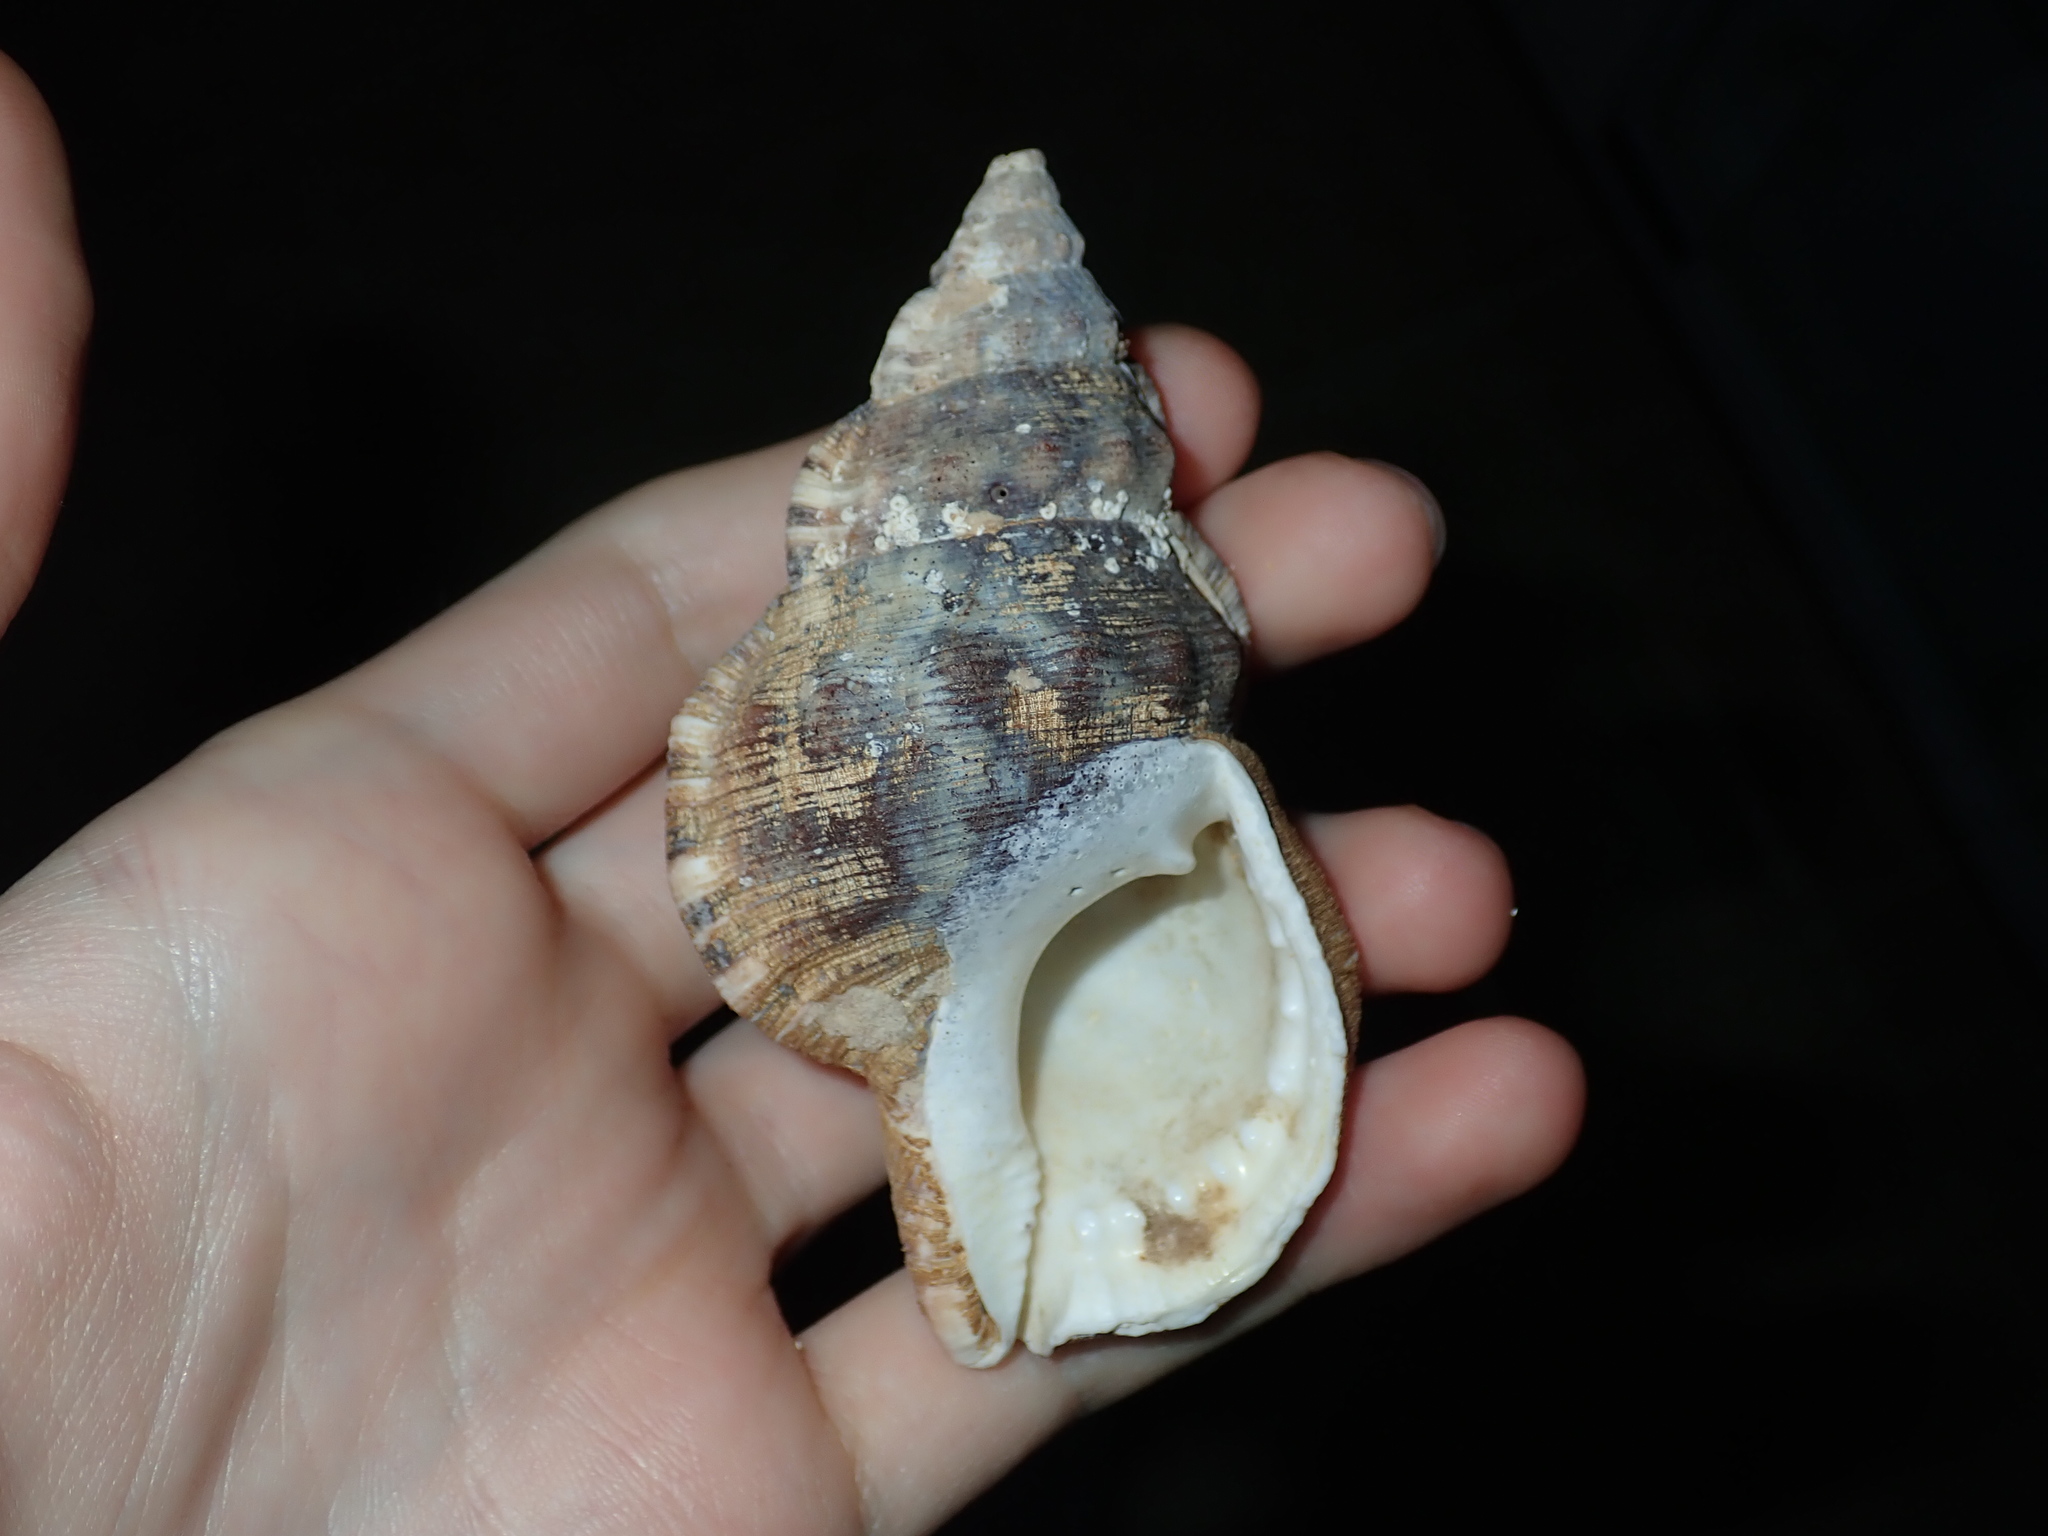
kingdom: Animalia
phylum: Mollusca
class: Gastropoda
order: Littorinimorpha
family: Ranellidae
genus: Ranella
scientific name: Ranella australasia
